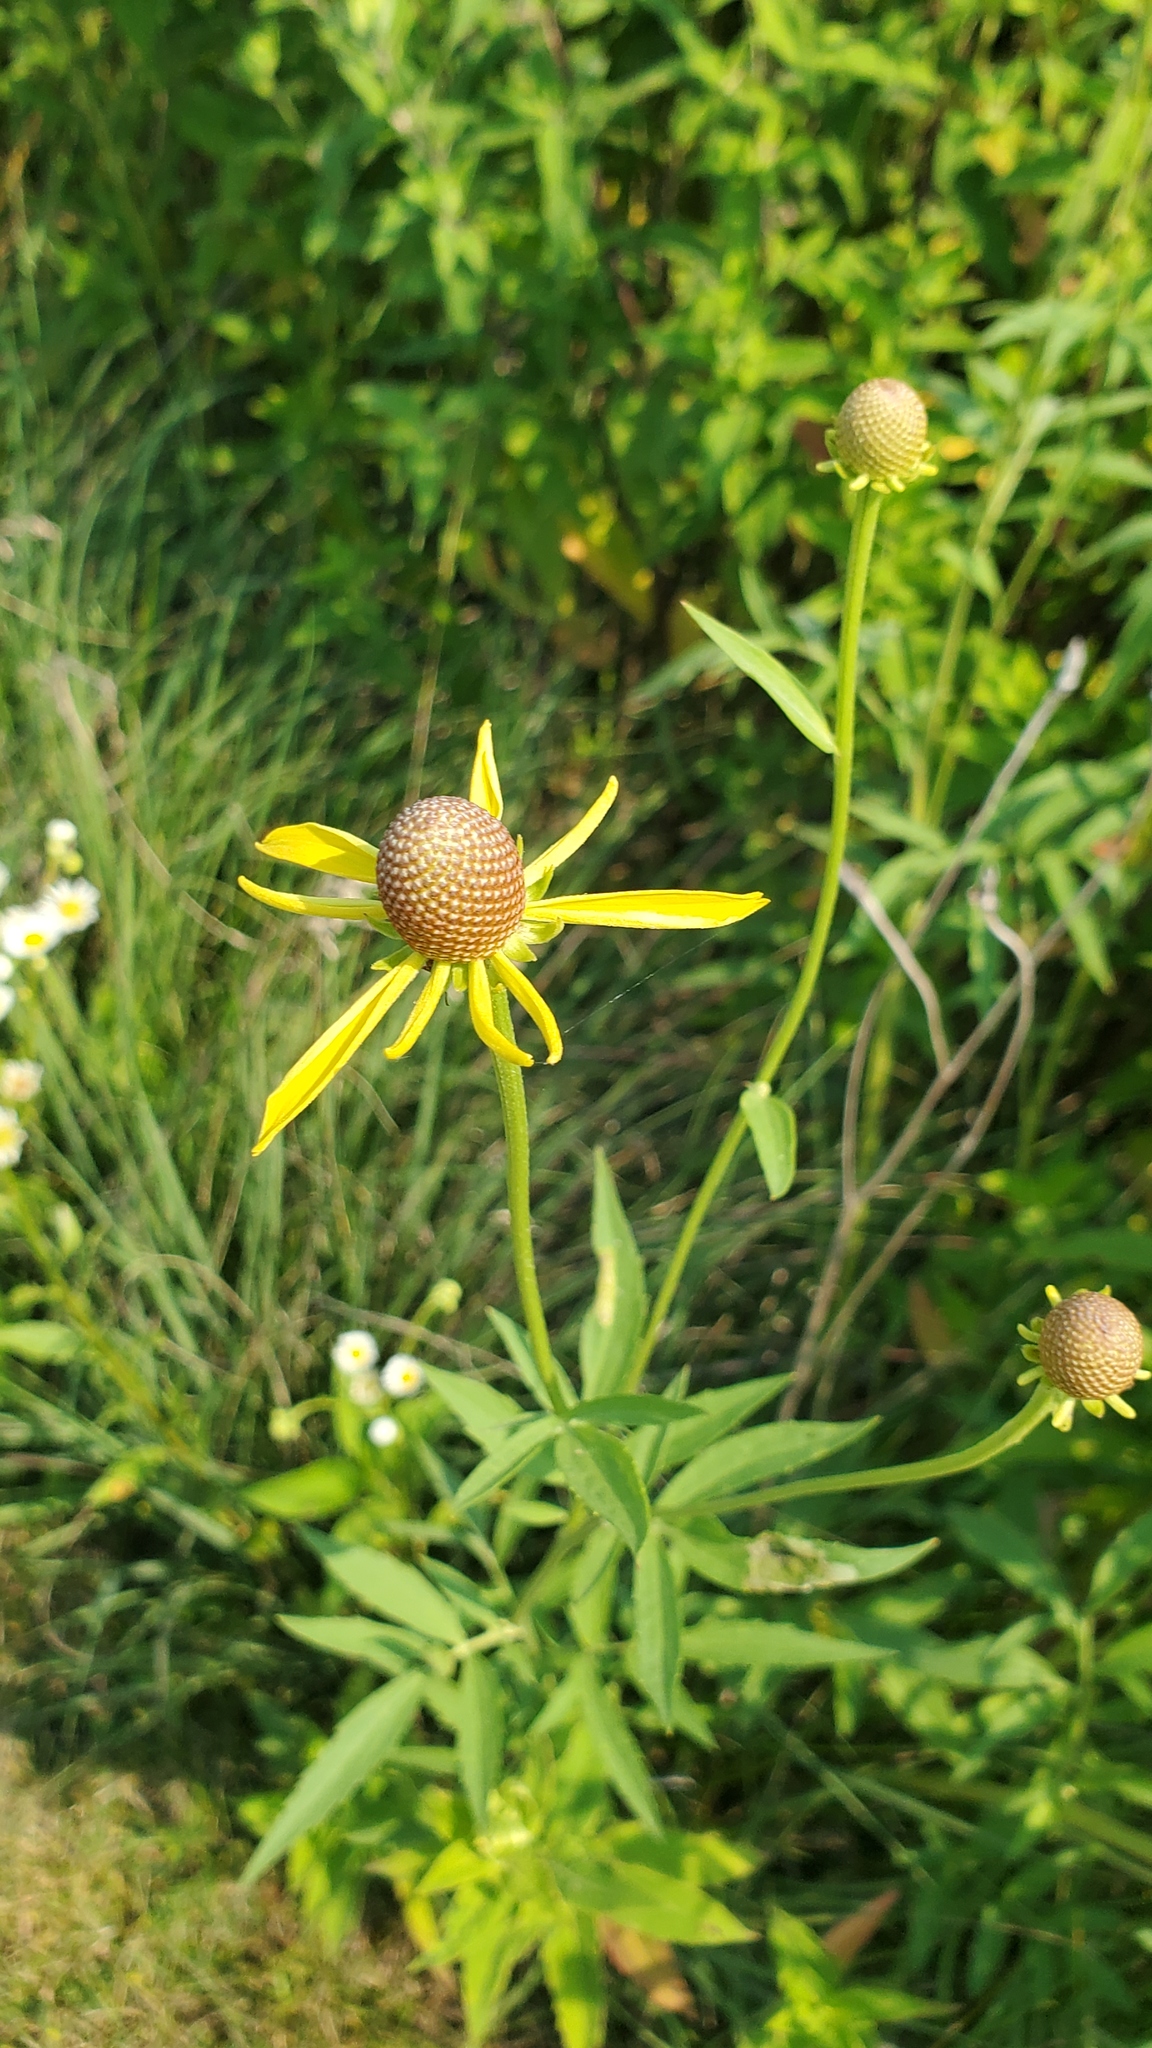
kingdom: Plantae
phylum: Tracheophyta
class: Magnoliopsida
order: Asterales
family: Asteraceae
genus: Ratibida
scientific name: Ratibida pinnata
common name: Drooping prairie-coneflower
